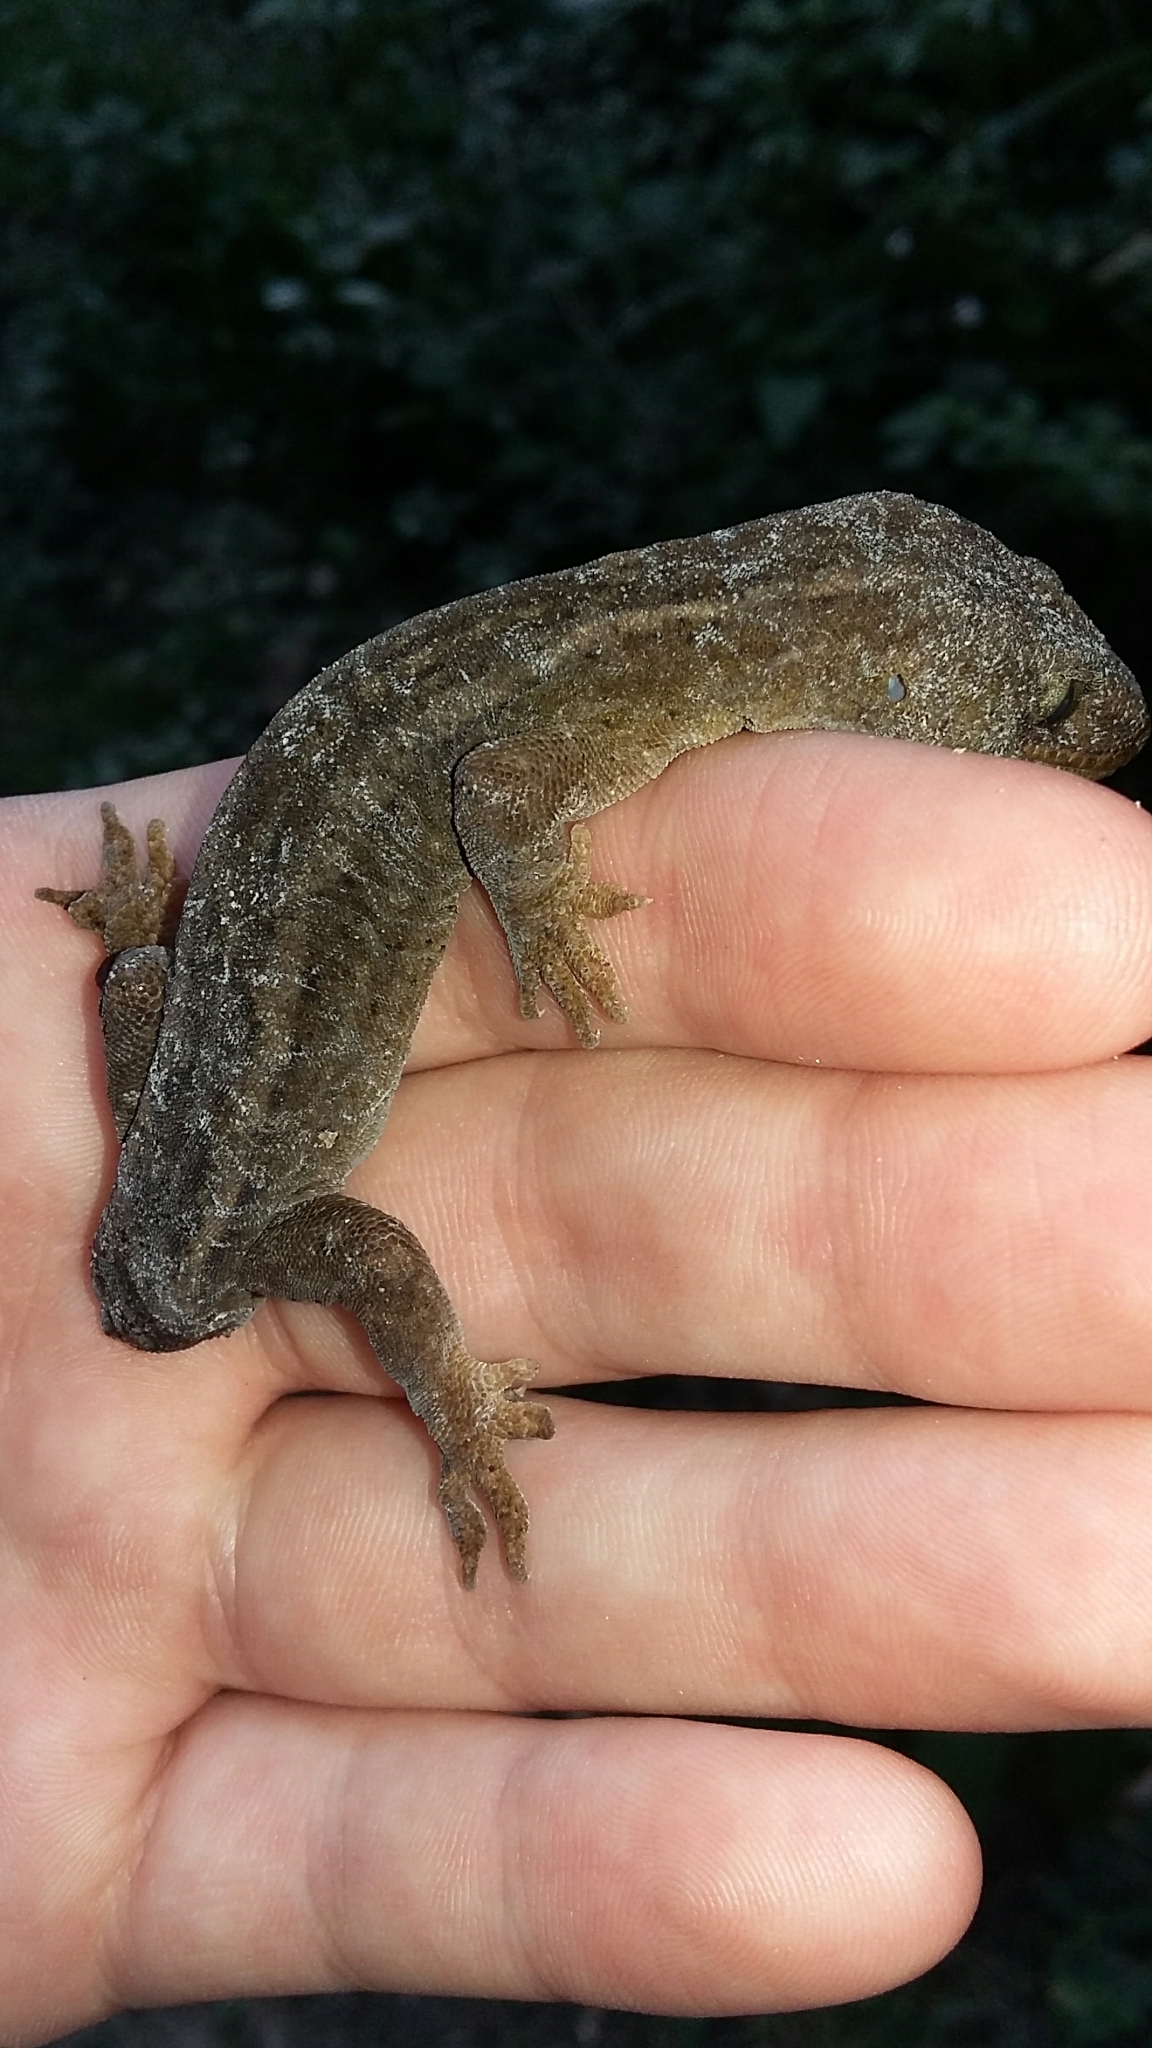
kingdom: Animalia
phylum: Chordata
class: Squamata
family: Diplodactylidae
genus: Woodworthia
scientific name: Woodworthia maculata
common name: Raukawa gecko
